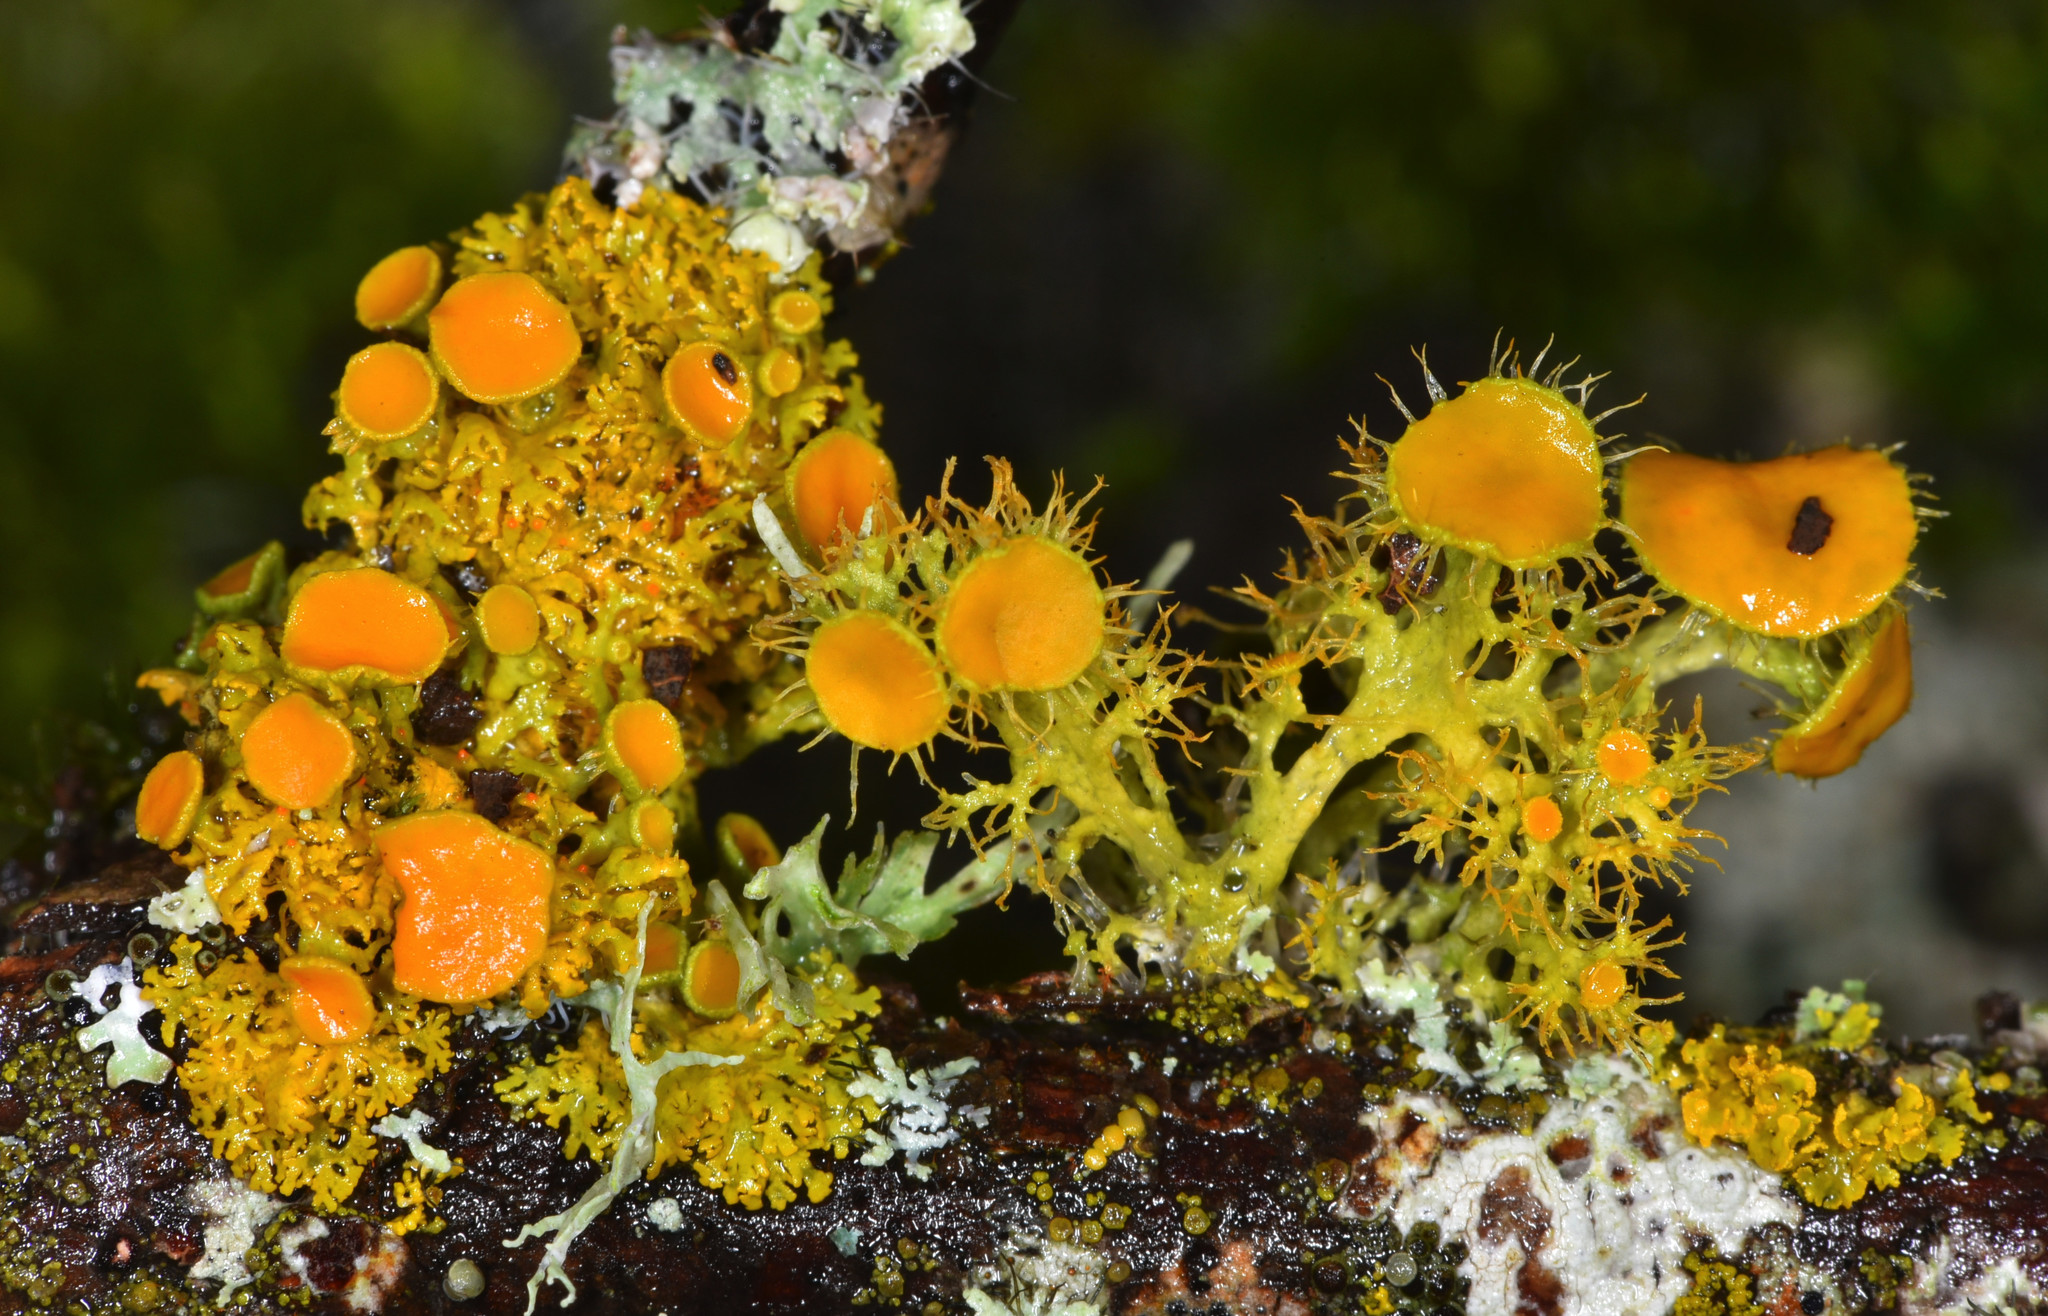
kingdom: Fungi
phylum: Ascomycota
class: Lecanoromycetes
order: Teloschistales
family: Teloschistaceae
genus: Niorma
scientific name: Niorma chrysophthalma
